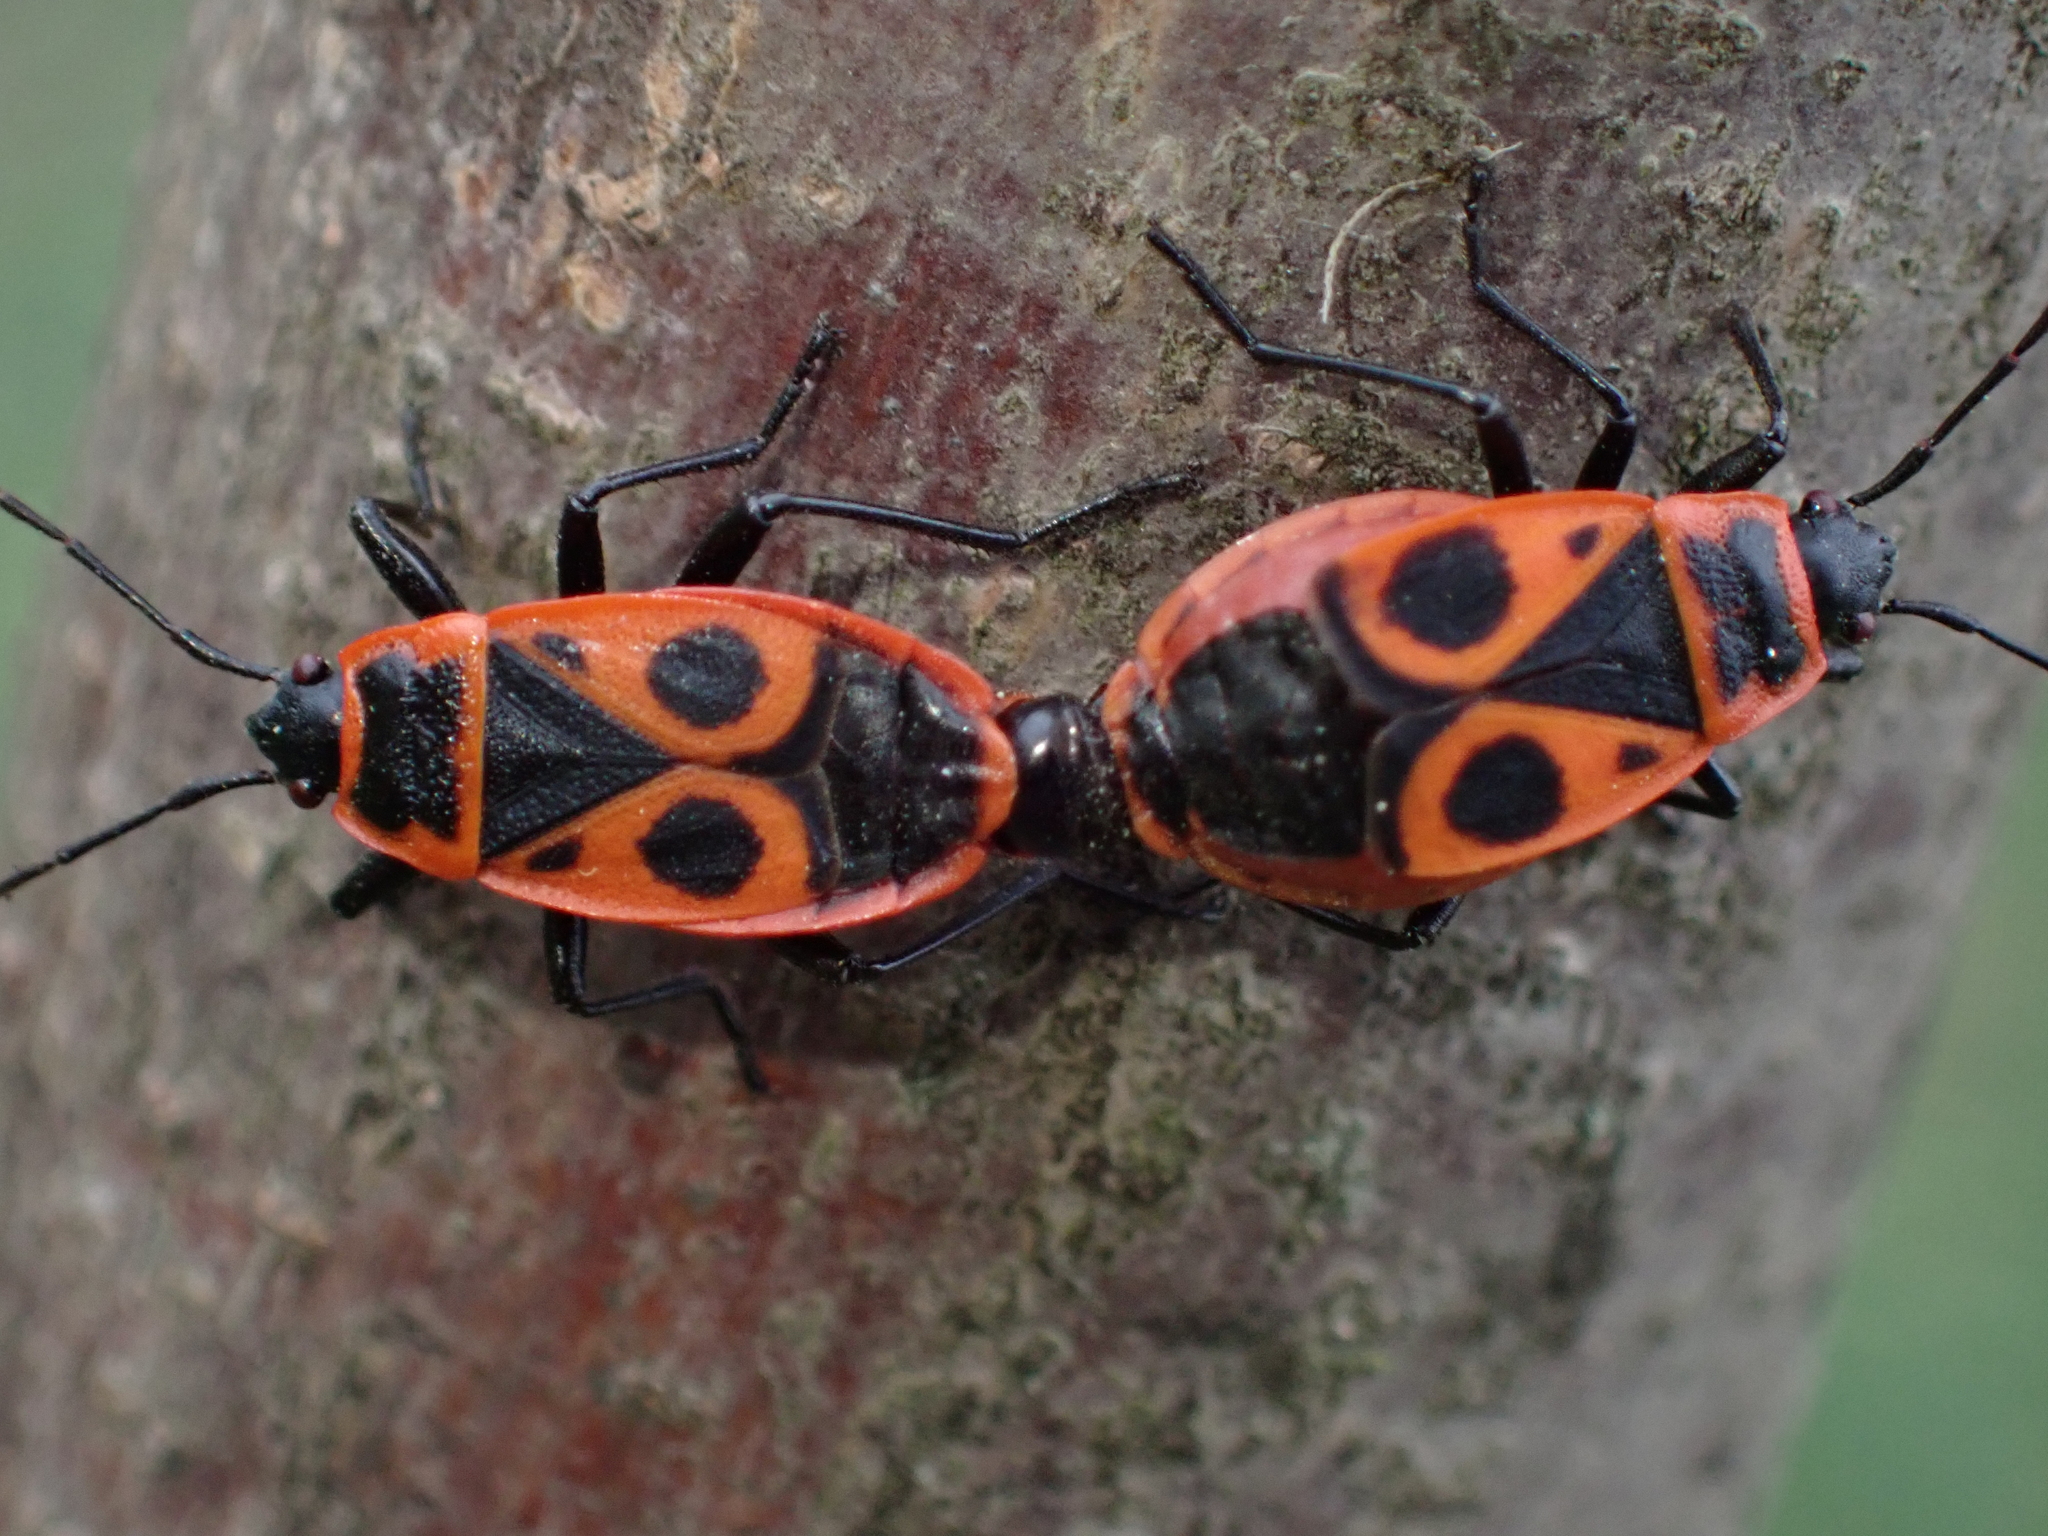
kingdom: Animalia
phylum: Arthropoda
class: Insecta
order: Hemiptera
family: Pyrrhocoridae
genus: Pyrrhocoris
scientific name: Pyrrhocoris apterus
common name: Firebug
